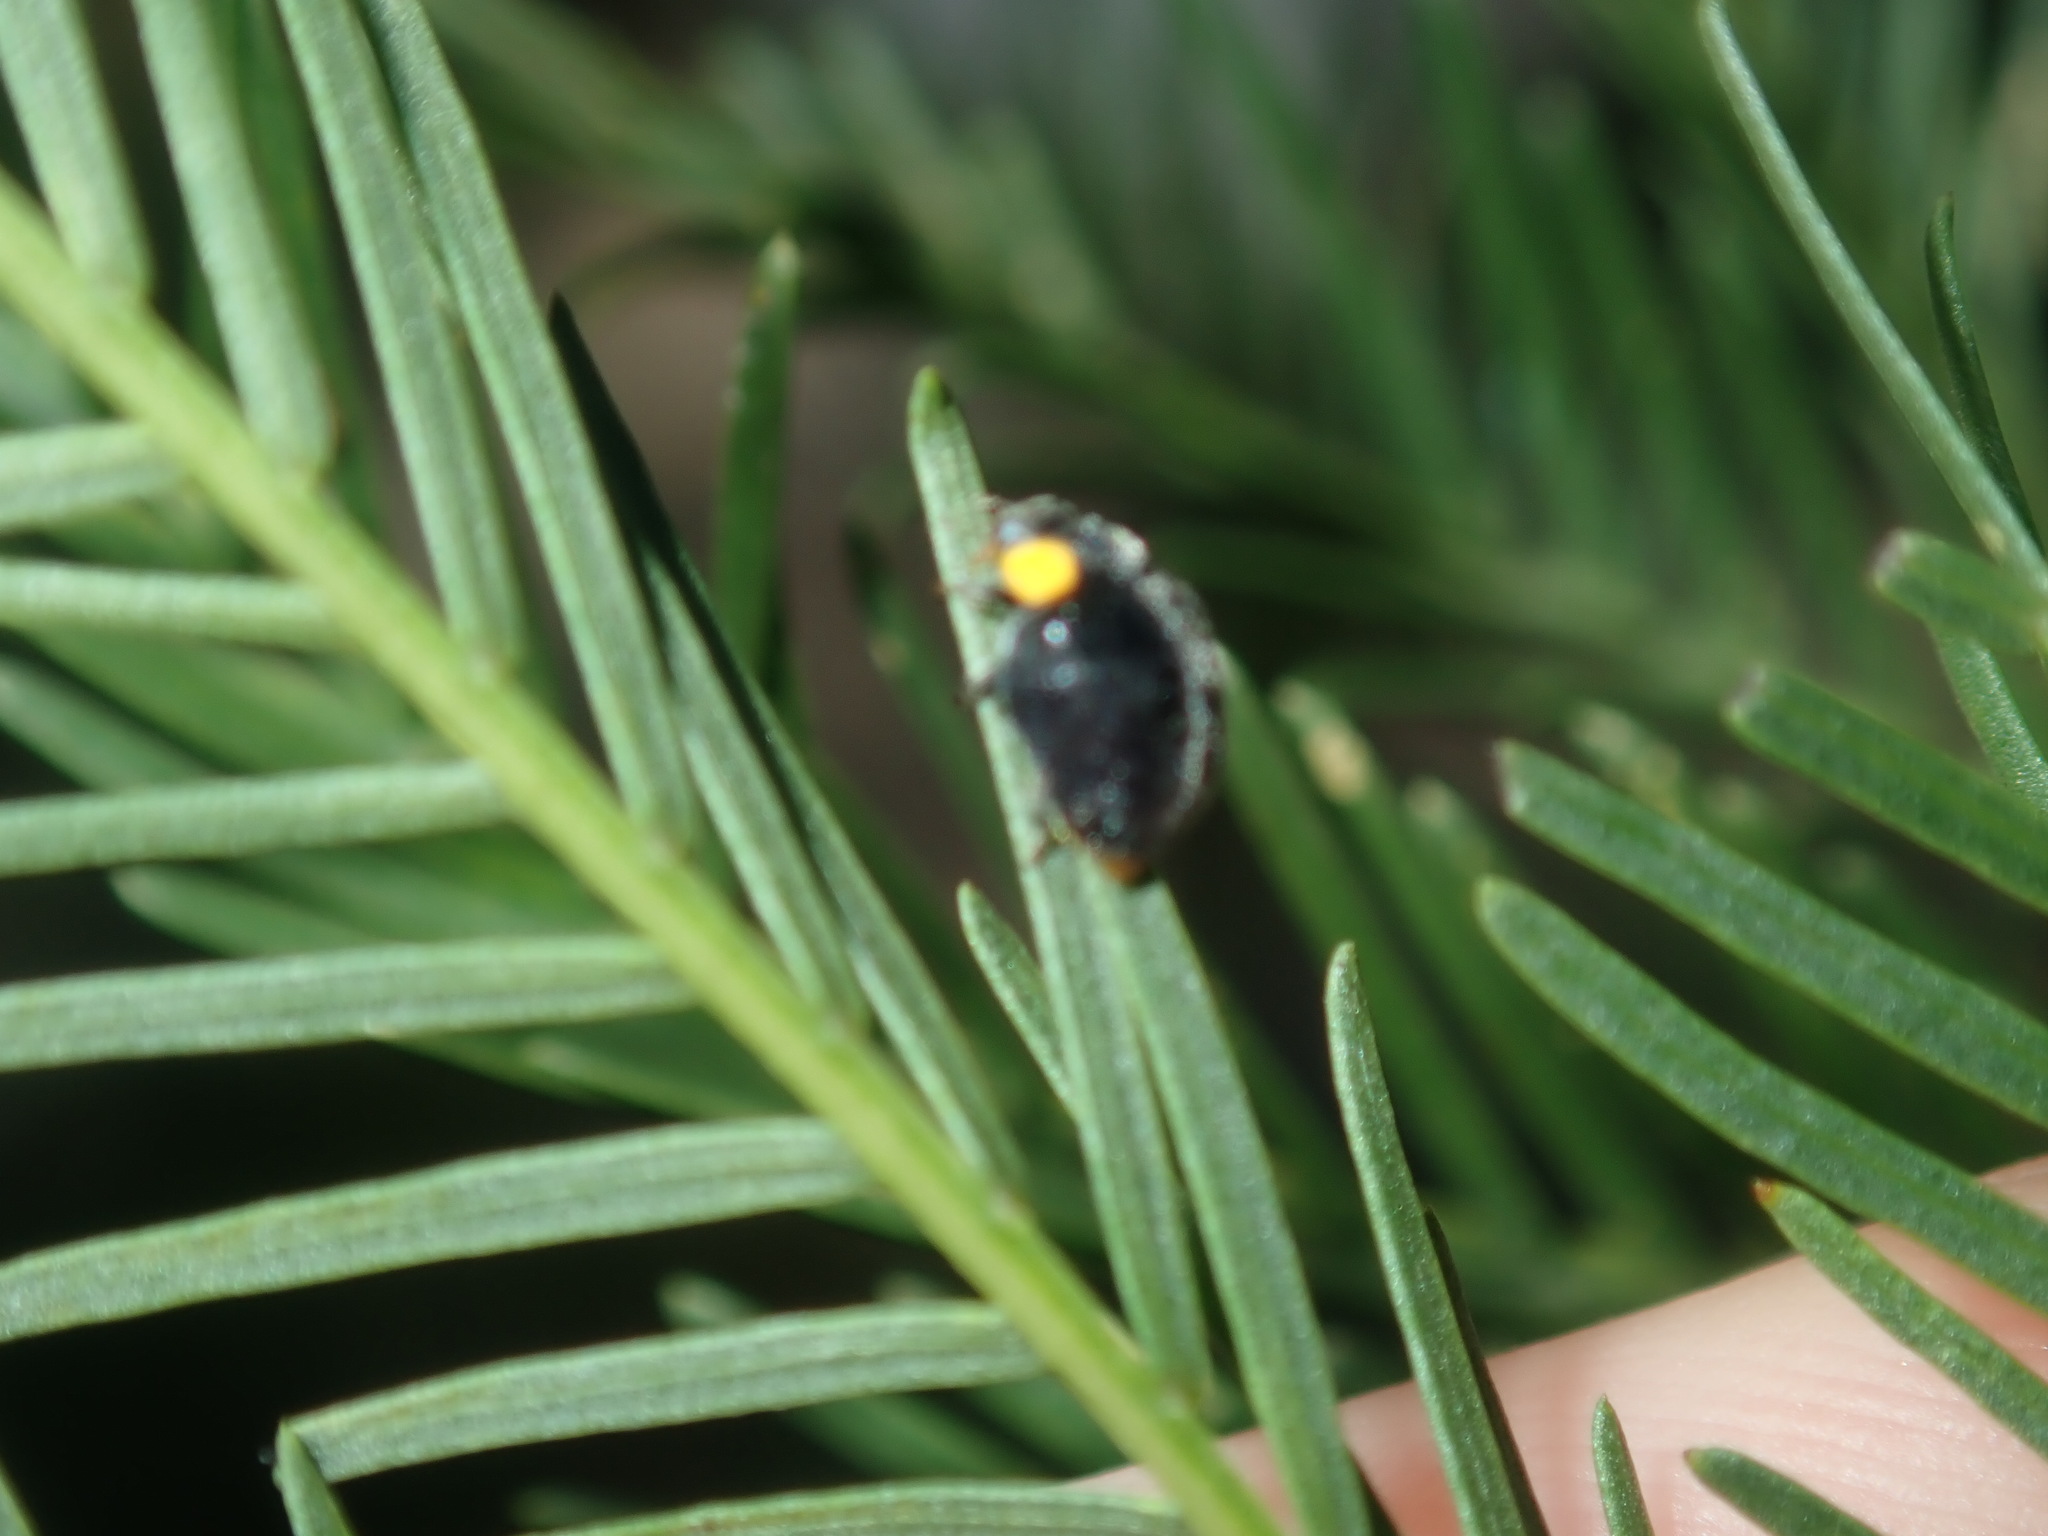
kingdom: Animalia
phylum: Arthropoda
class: Insecta
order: Coleoptera
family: Coccinellidae
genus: Scymnodes
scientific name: Scymnodes lividigaster
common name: Yellowshouldered lady beetle
